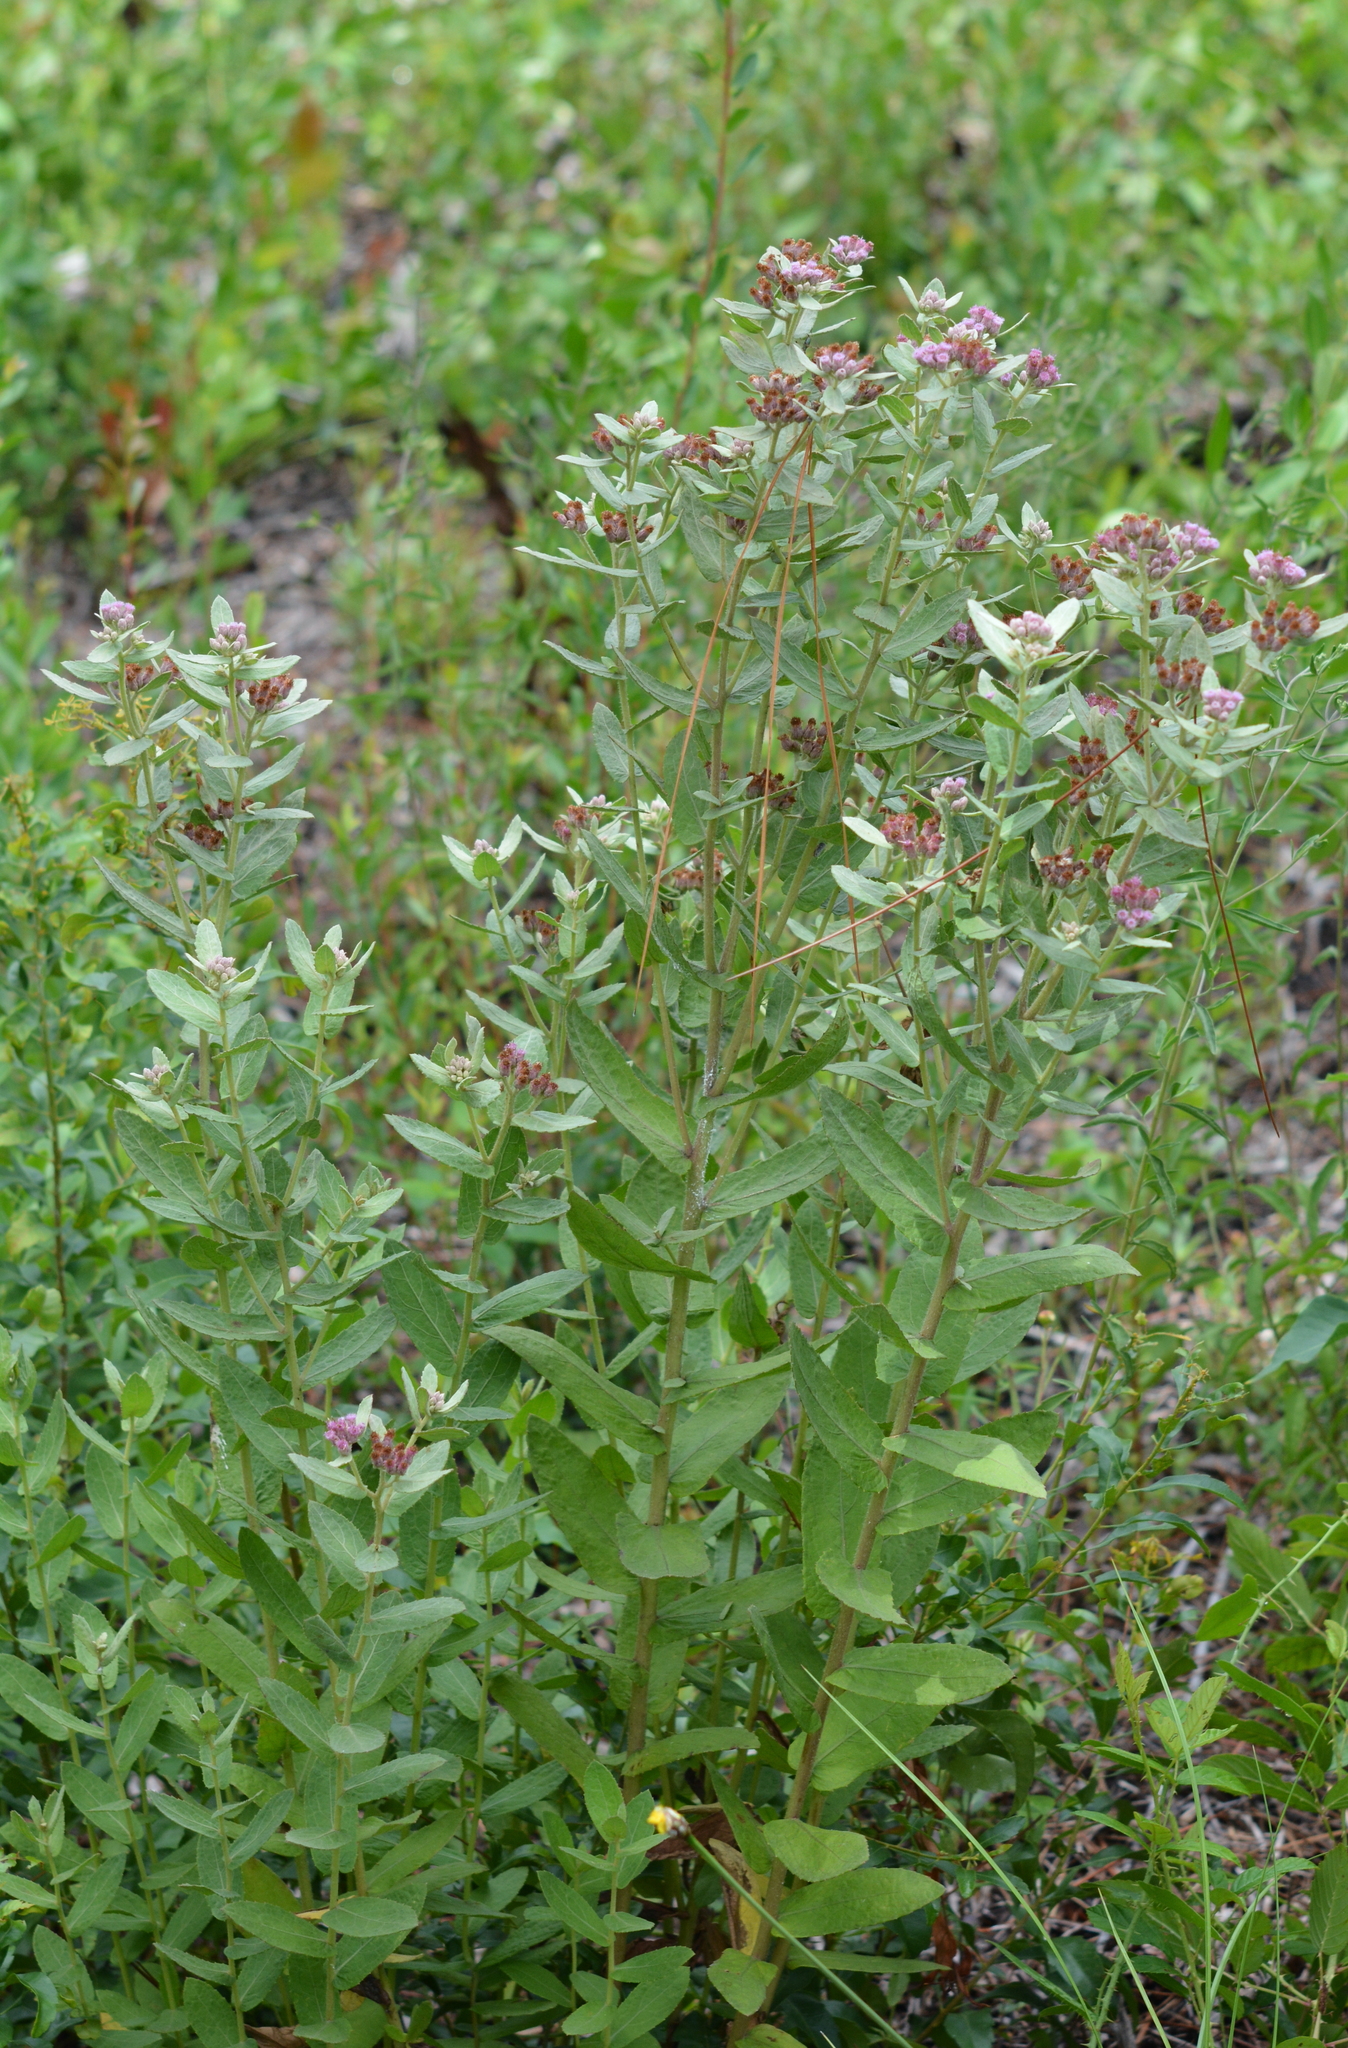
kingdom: Plantae
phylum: Tracheophyta
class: Magnoliopsida
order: Asterales
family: Asteraceae
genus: Pluchea
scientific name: Pluchea baccharis
